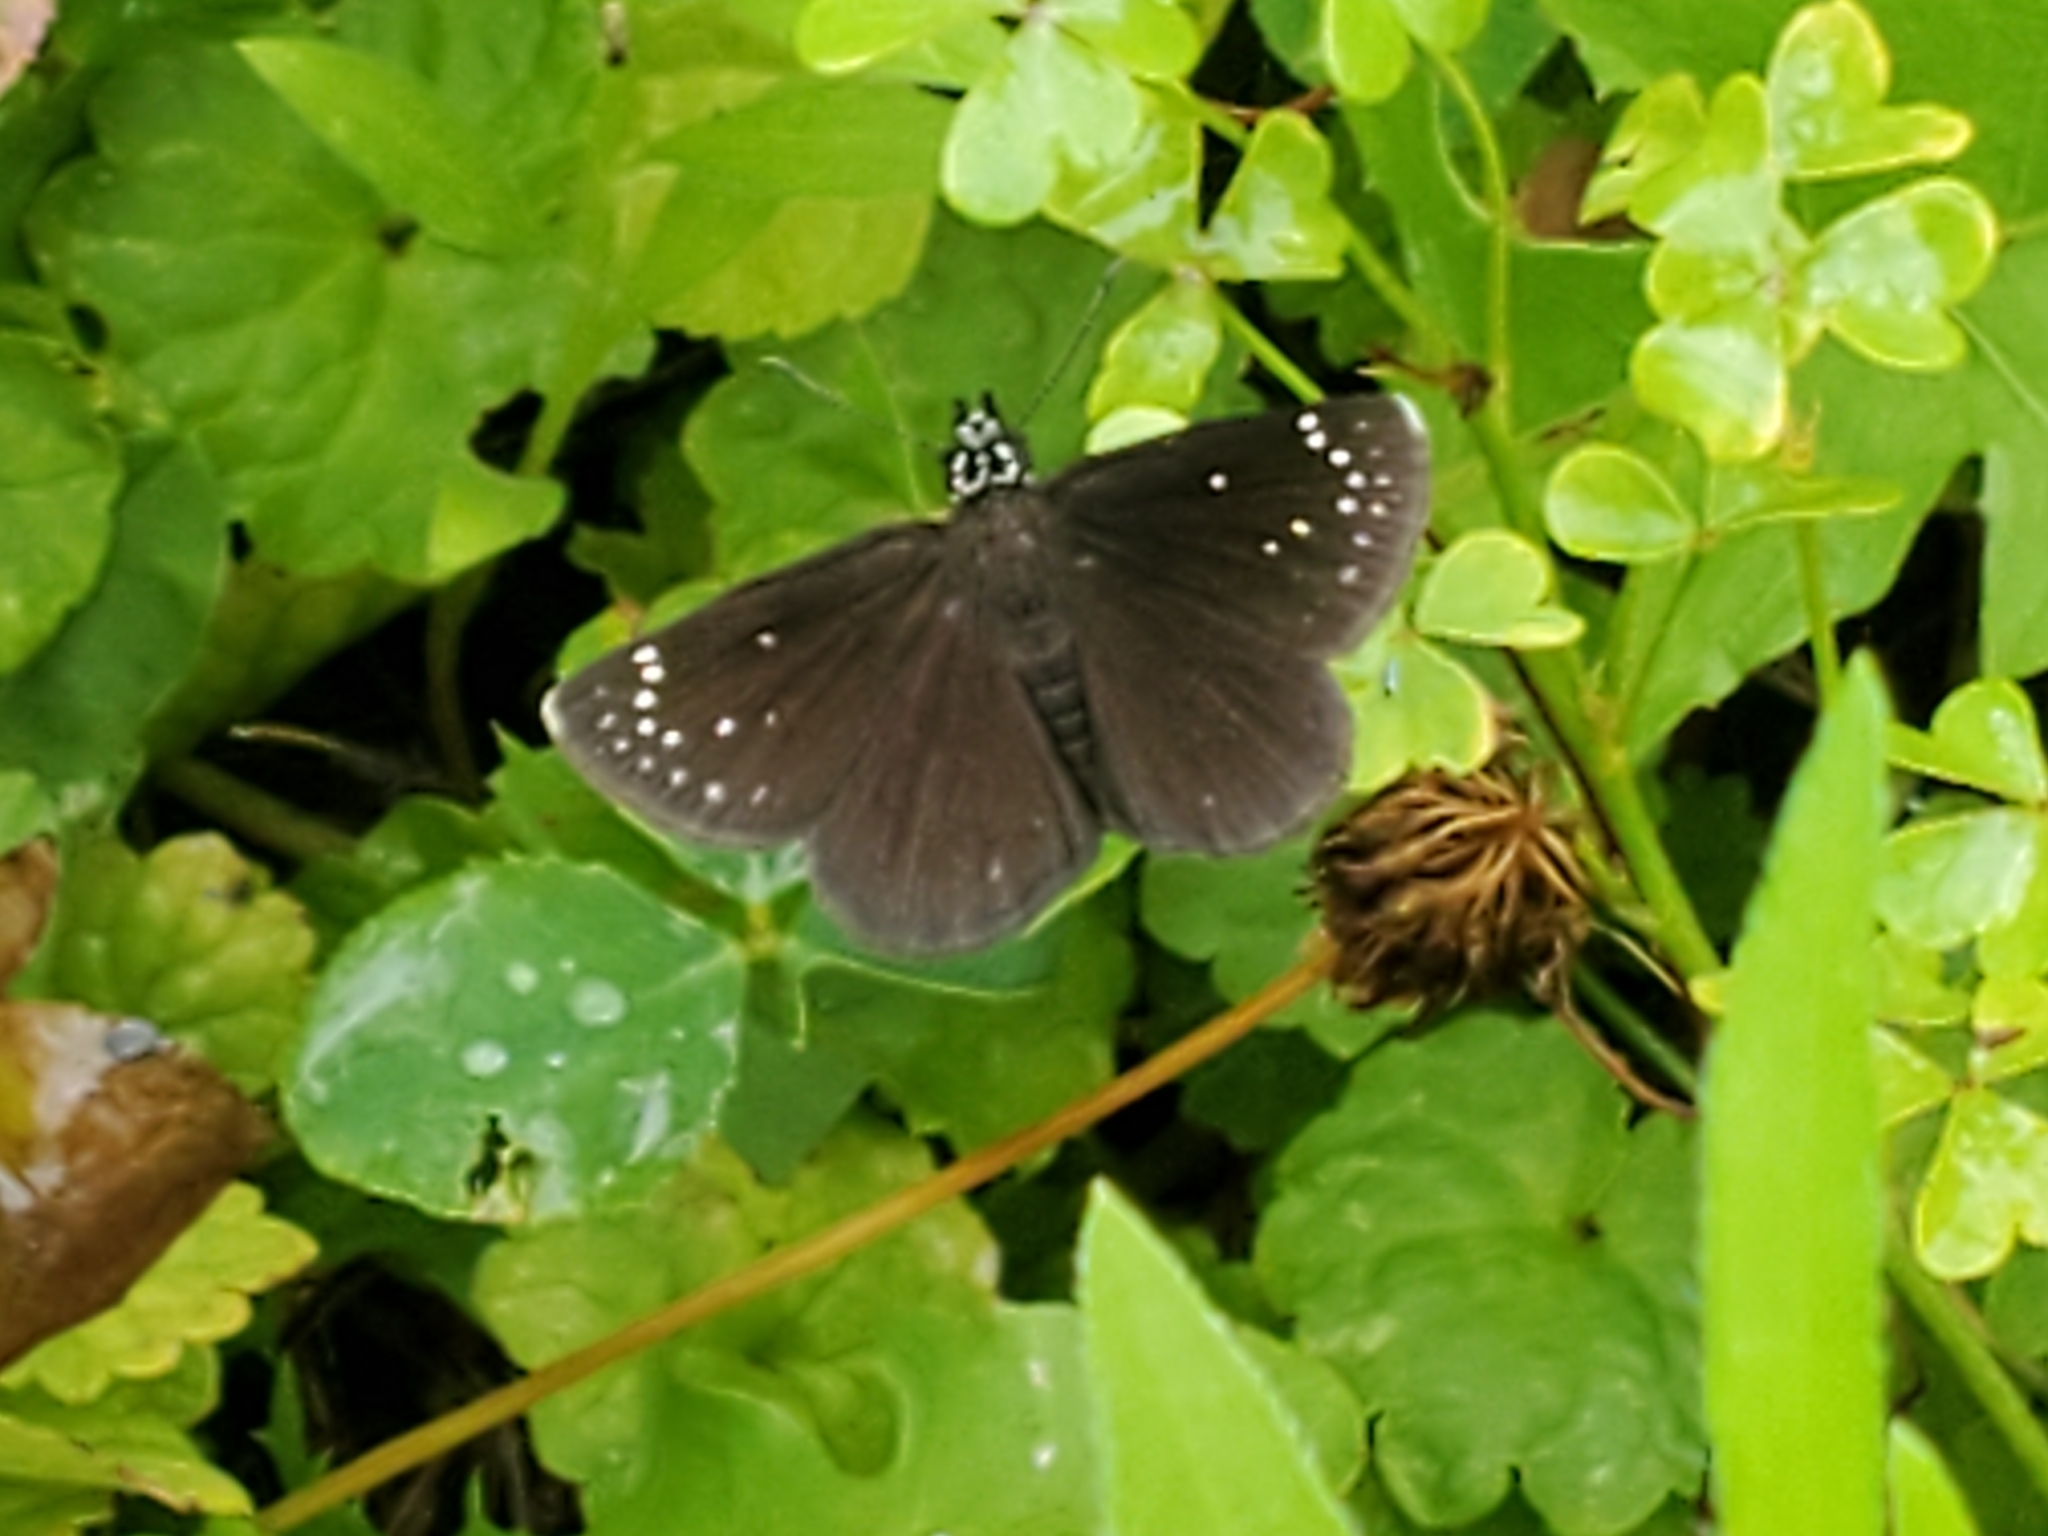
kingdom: Animalia
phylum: Arthropoda
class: Insecta
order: Lepidoptera
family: Hesperiidae
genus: Pholisora
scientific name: Pholisora catullus
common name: Common sootywing
